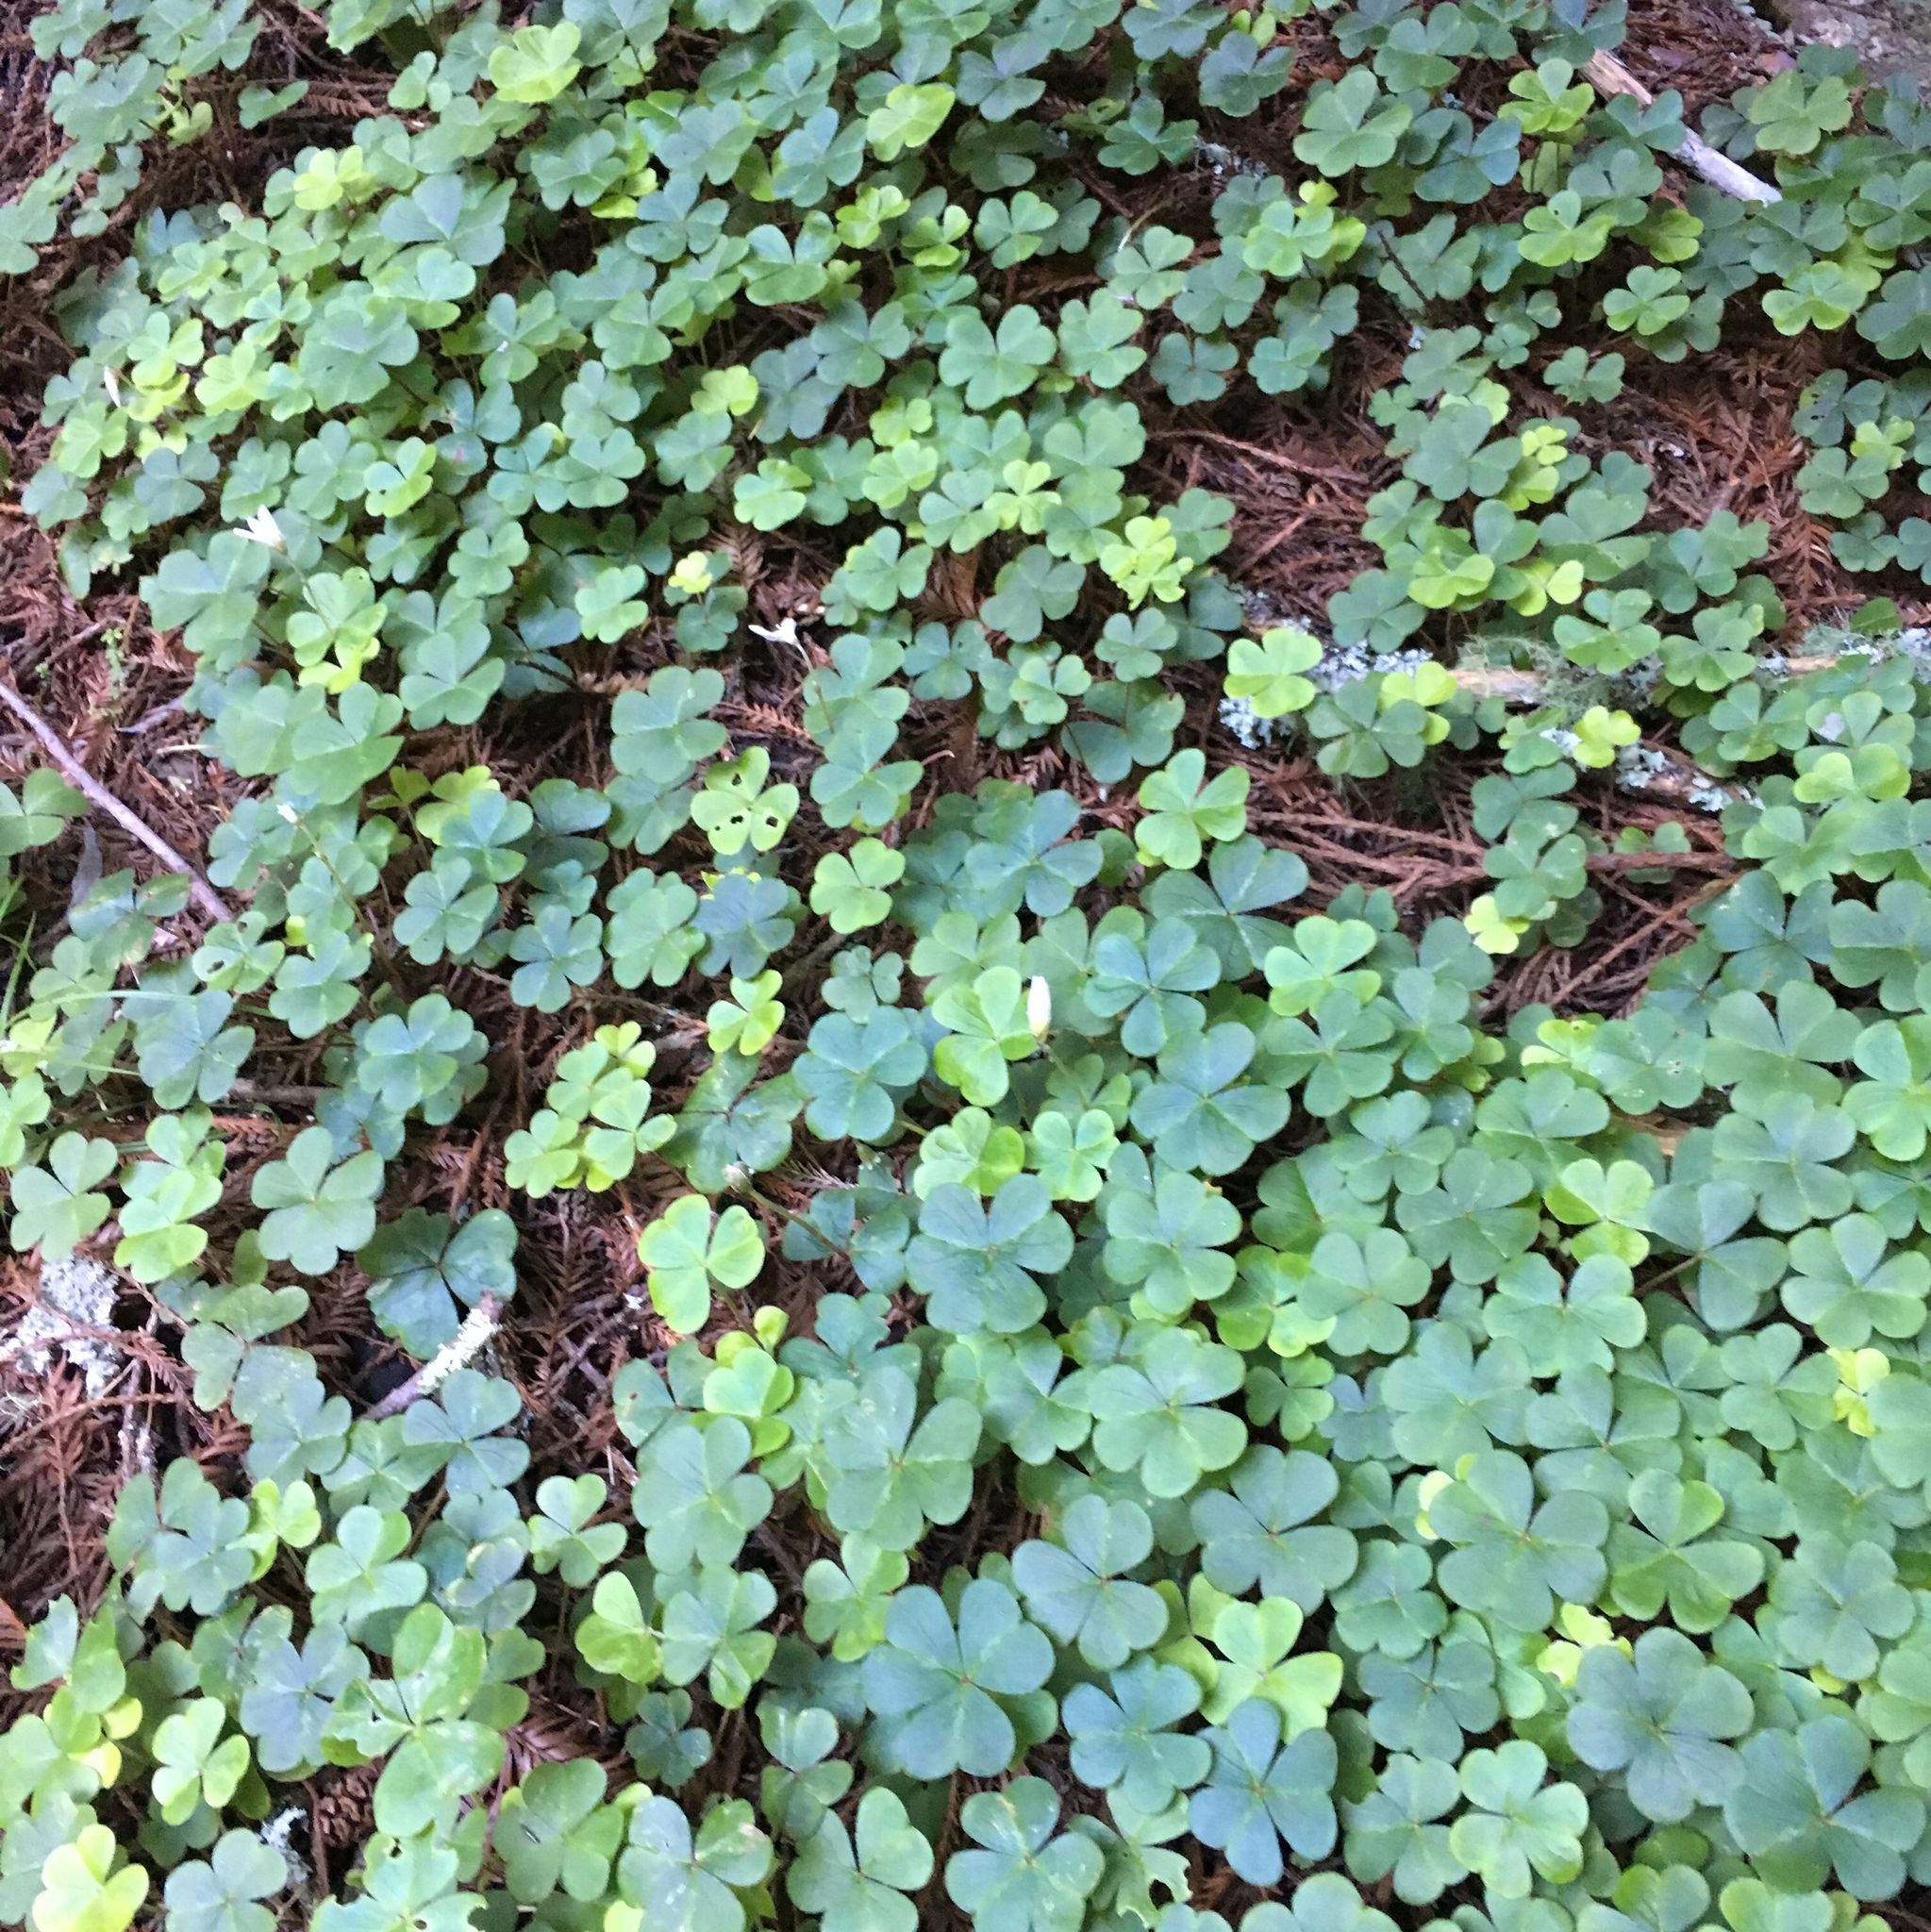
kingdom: Plantae
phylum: Tracheophyta
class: Magnoliopsida
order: Oxalidales
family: Oxalidaceae
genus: Oxalis
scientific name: Oxalis oregana
